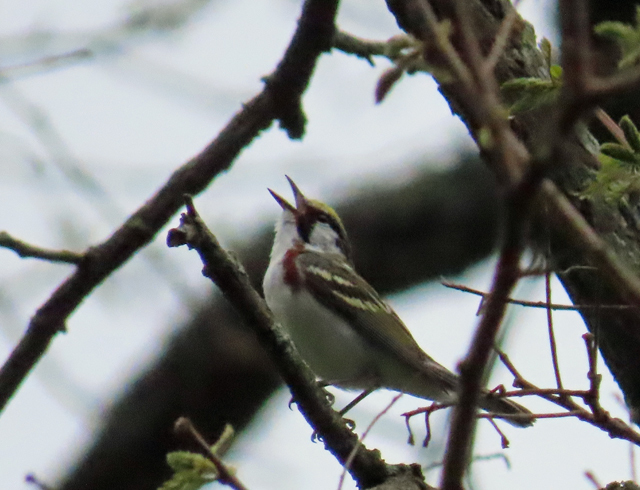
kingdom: Animalia
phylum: Chordata
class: Aves
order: Passeriformes
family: Parulidae
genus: Setophaga
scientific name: Setophaga pensylvanica
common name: Chestnut-sided warbler
